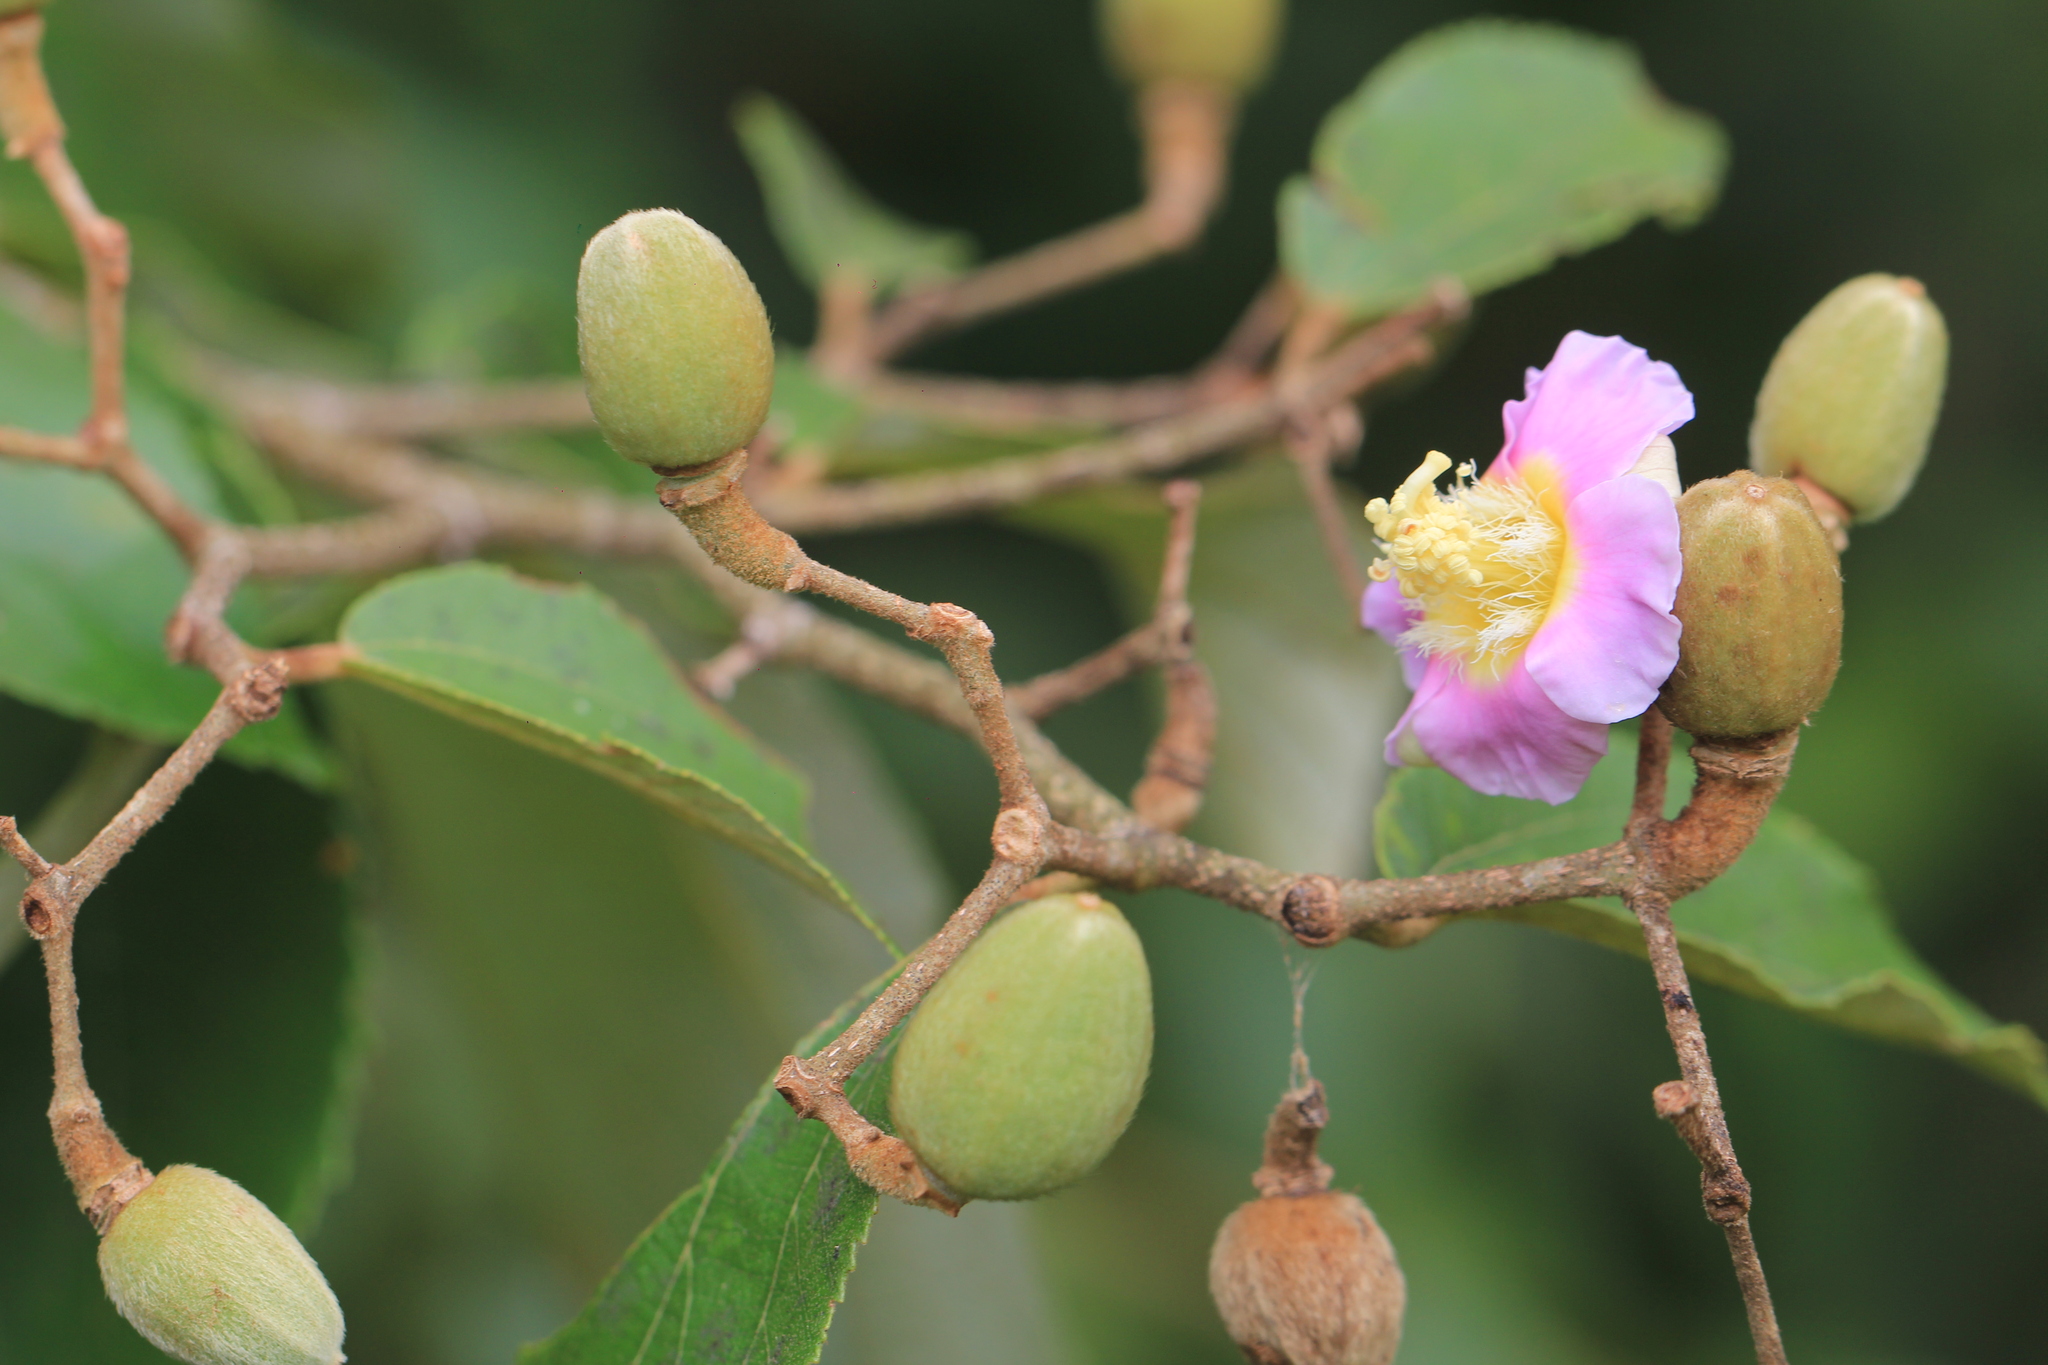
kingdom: Plantae
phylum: Tracheophyta
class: Magnoliopsida
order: Malvales
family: Malvaceae
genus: Luehea
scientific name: Luehea divaricata
